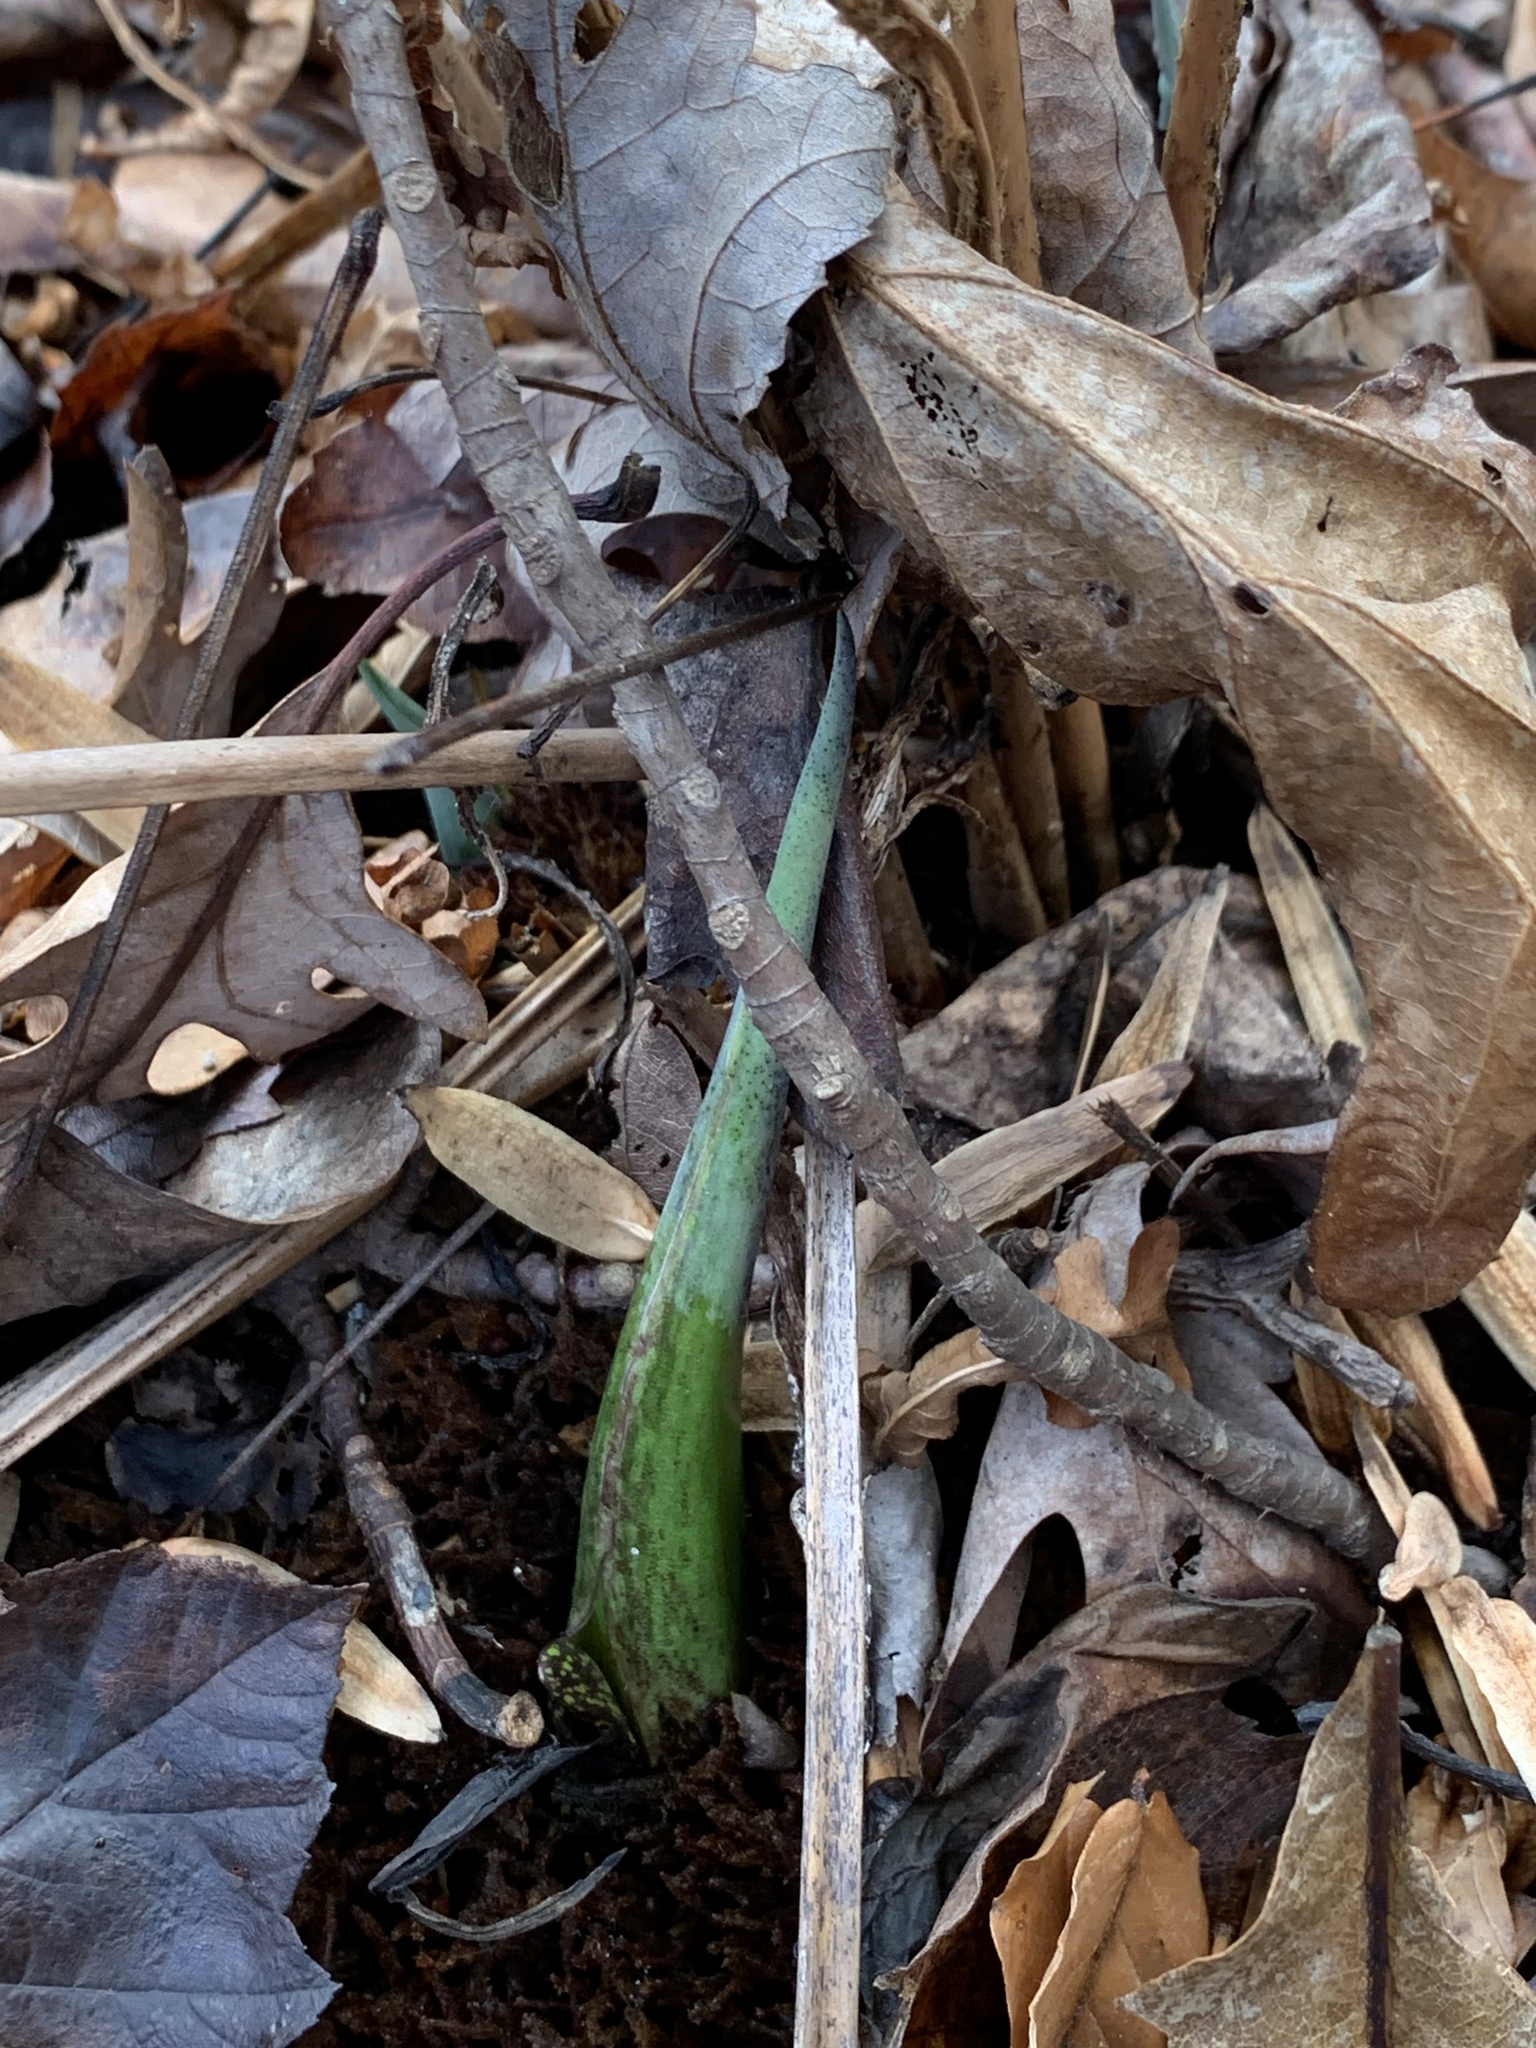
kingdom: Plantae
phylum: Tracheophyta
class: Liliopsida
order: Alismatales
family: Araceae
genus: Symplocarpus
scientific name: Symplocarpus foetidus
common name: Eastern skunk cabbage
